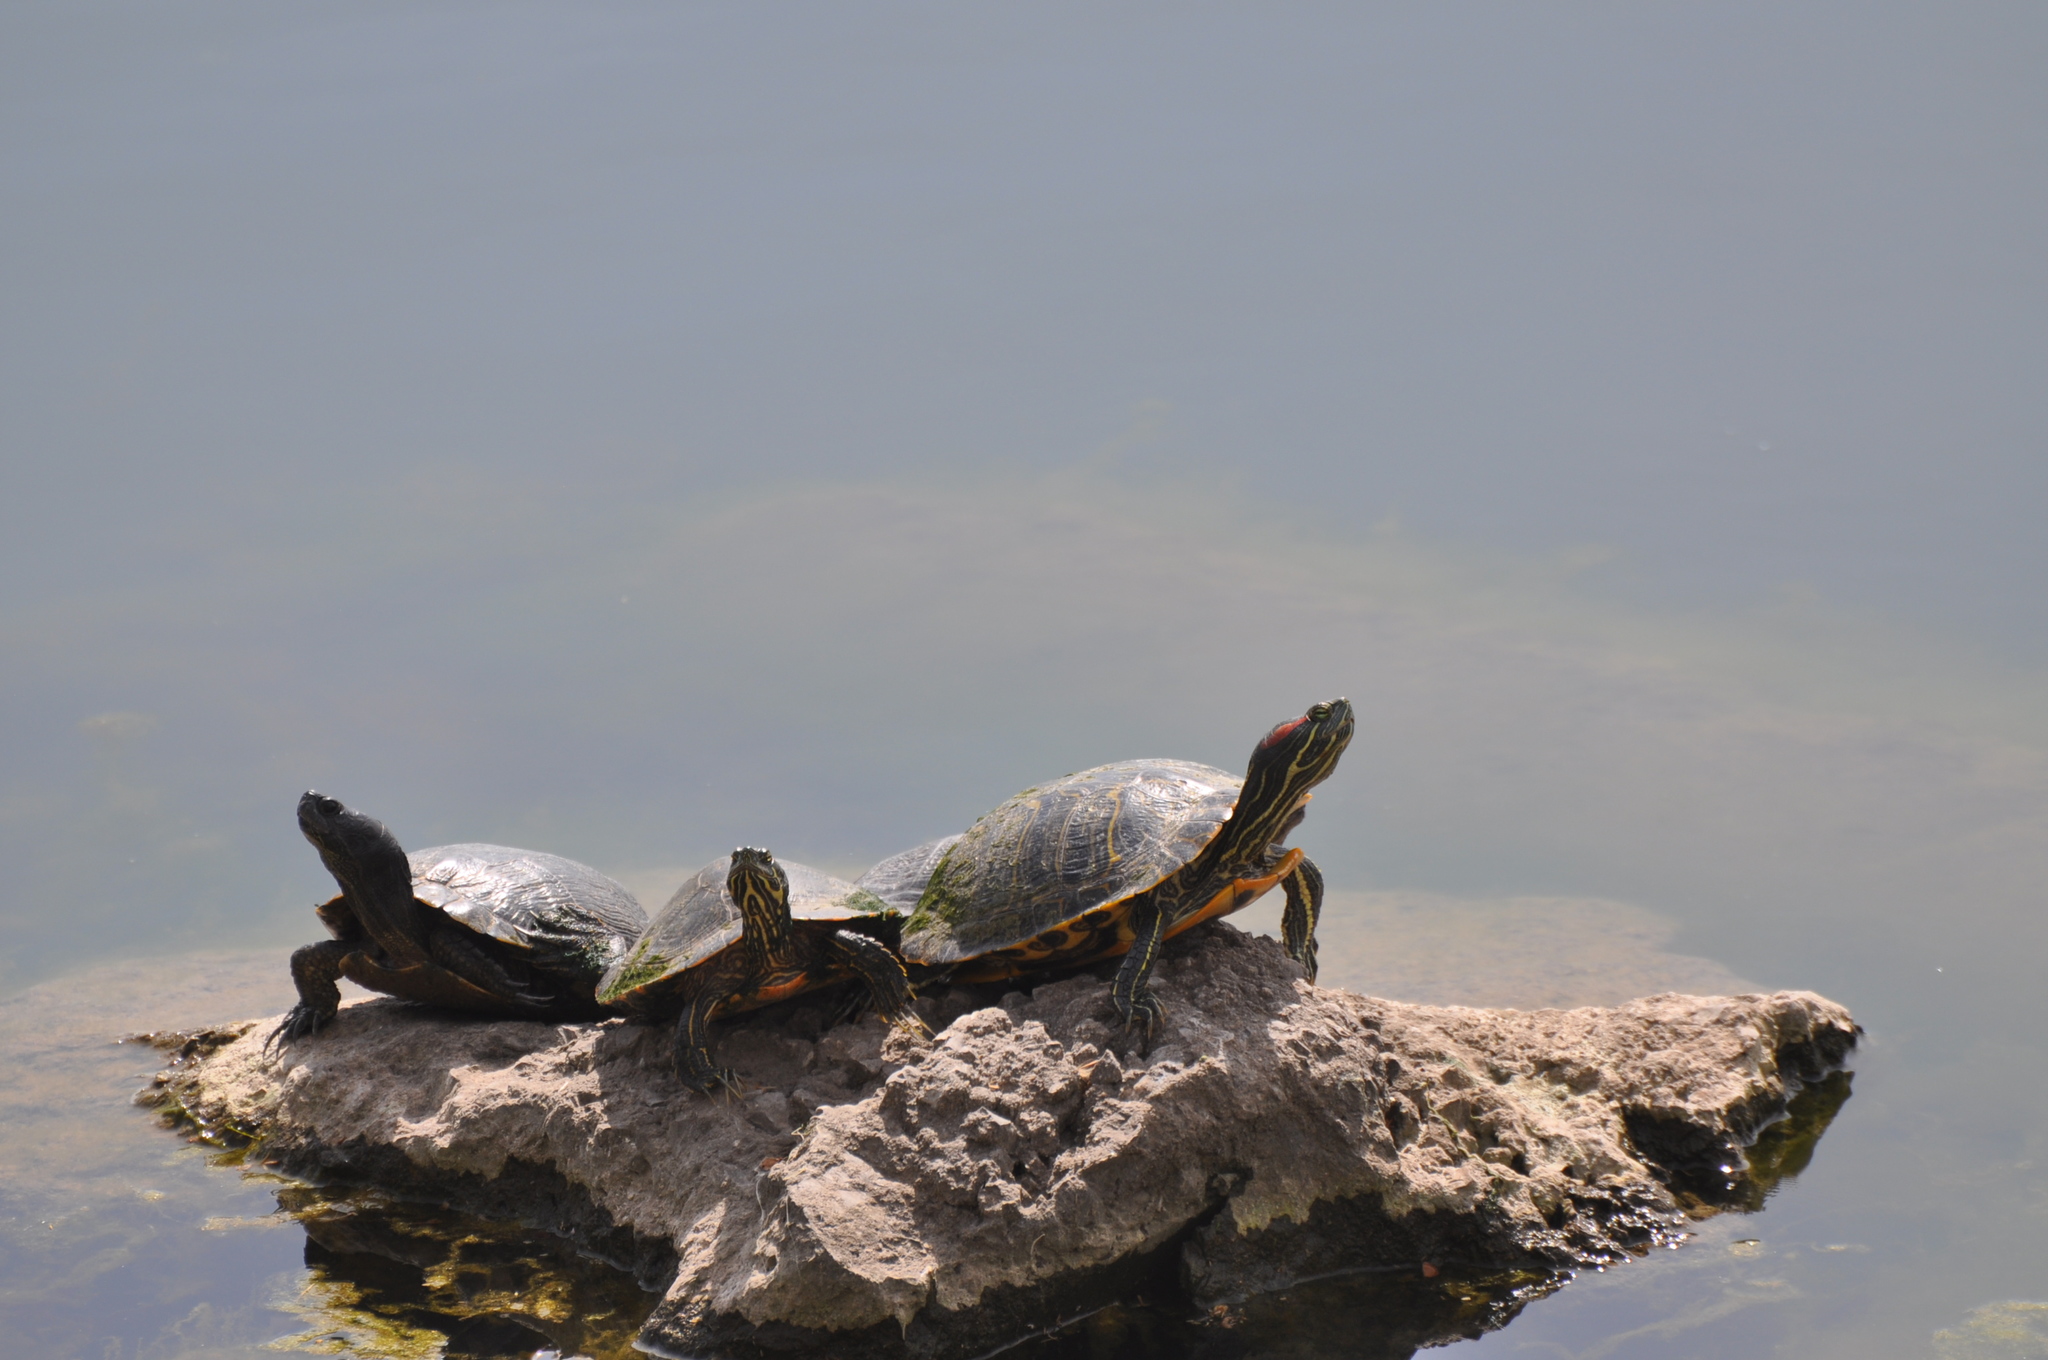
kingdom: Animalia
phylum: Chordata
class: Testudines
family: Emydidae
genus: Trachemys
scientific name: Trachemys scripta
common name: Slider
